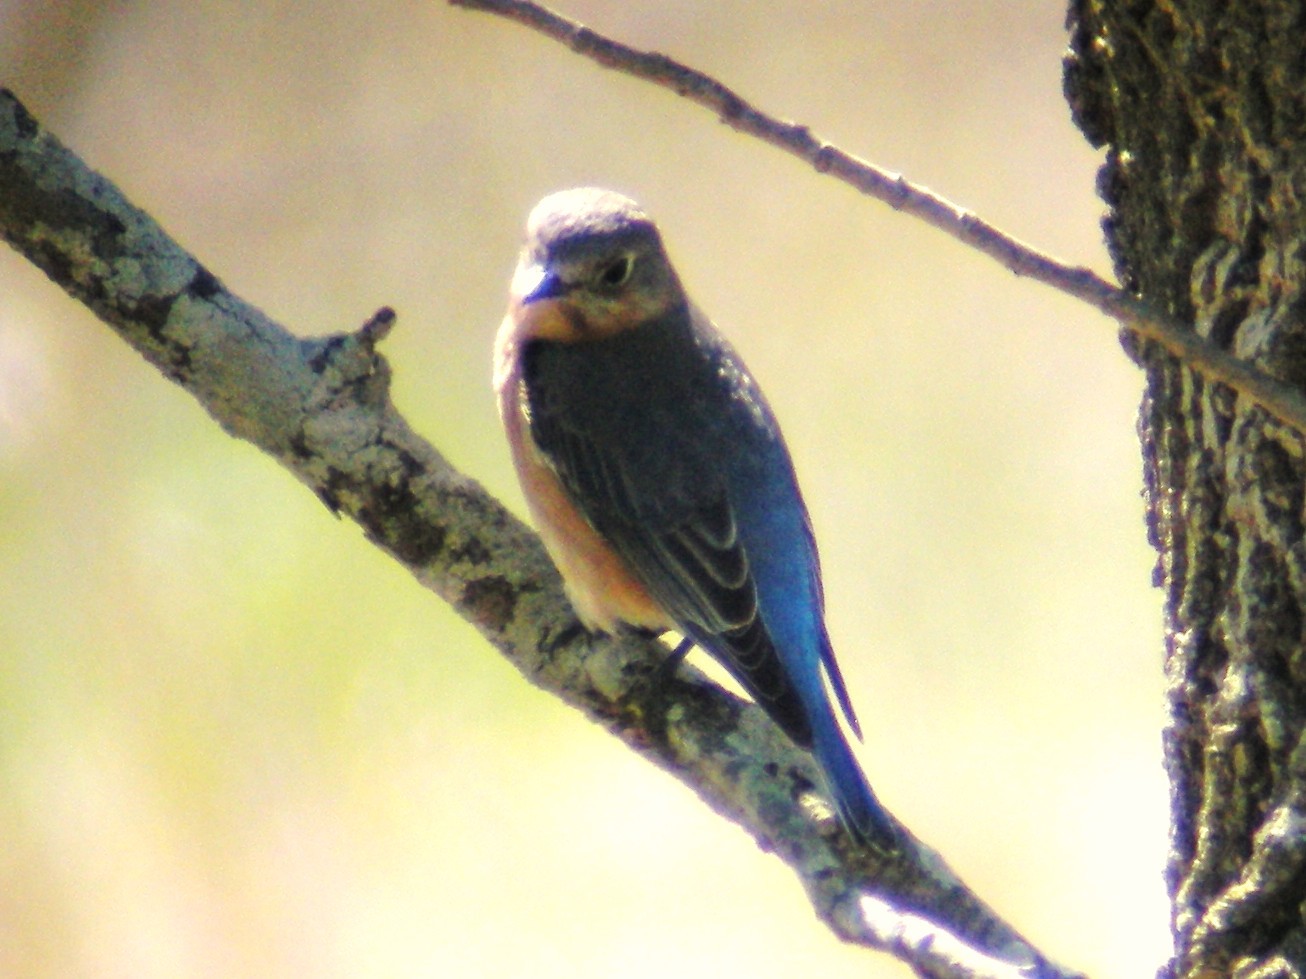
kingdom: Animalia
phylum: Chordata
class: Aves
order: Passeriformes
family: Turdidae
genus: Sialia
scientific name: Sialia sialis
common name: Eastern bluebird
